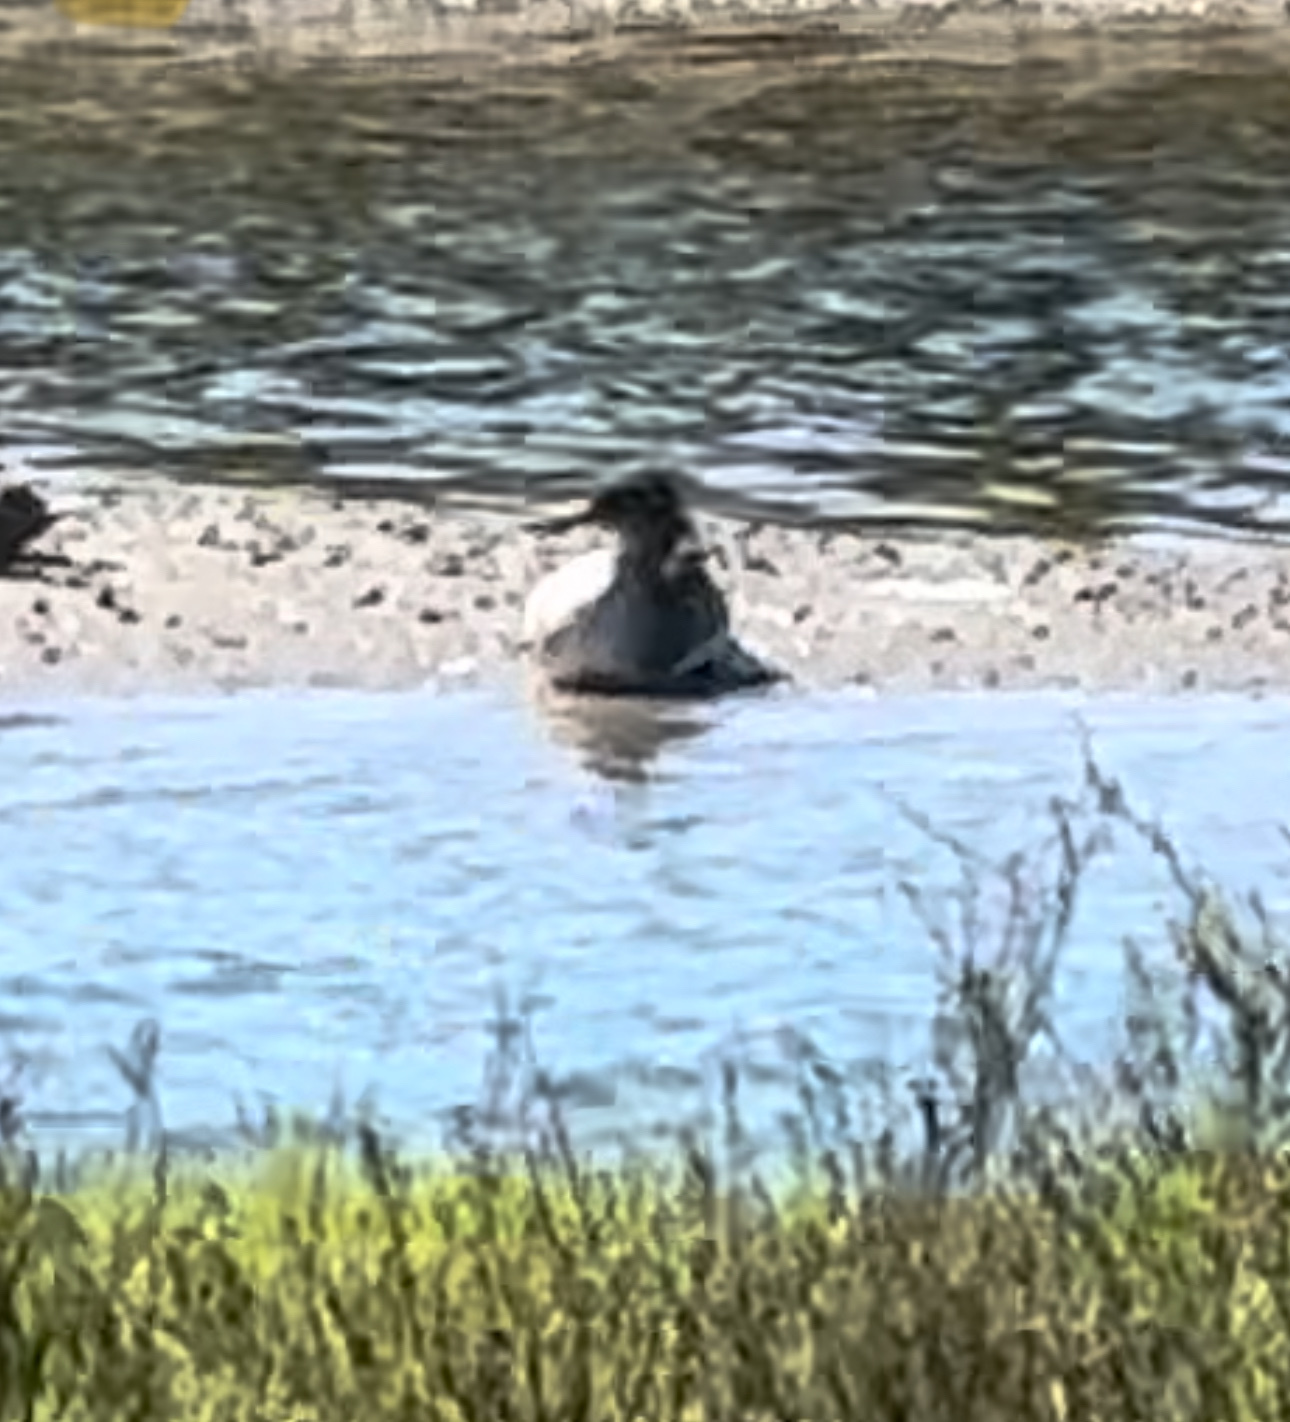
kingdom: Animalia
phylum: Chordata
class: Aves
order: Anseriformes
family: Anatidae
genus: Mergus
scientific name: Mergus serrator
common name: Red-breasted merganser
